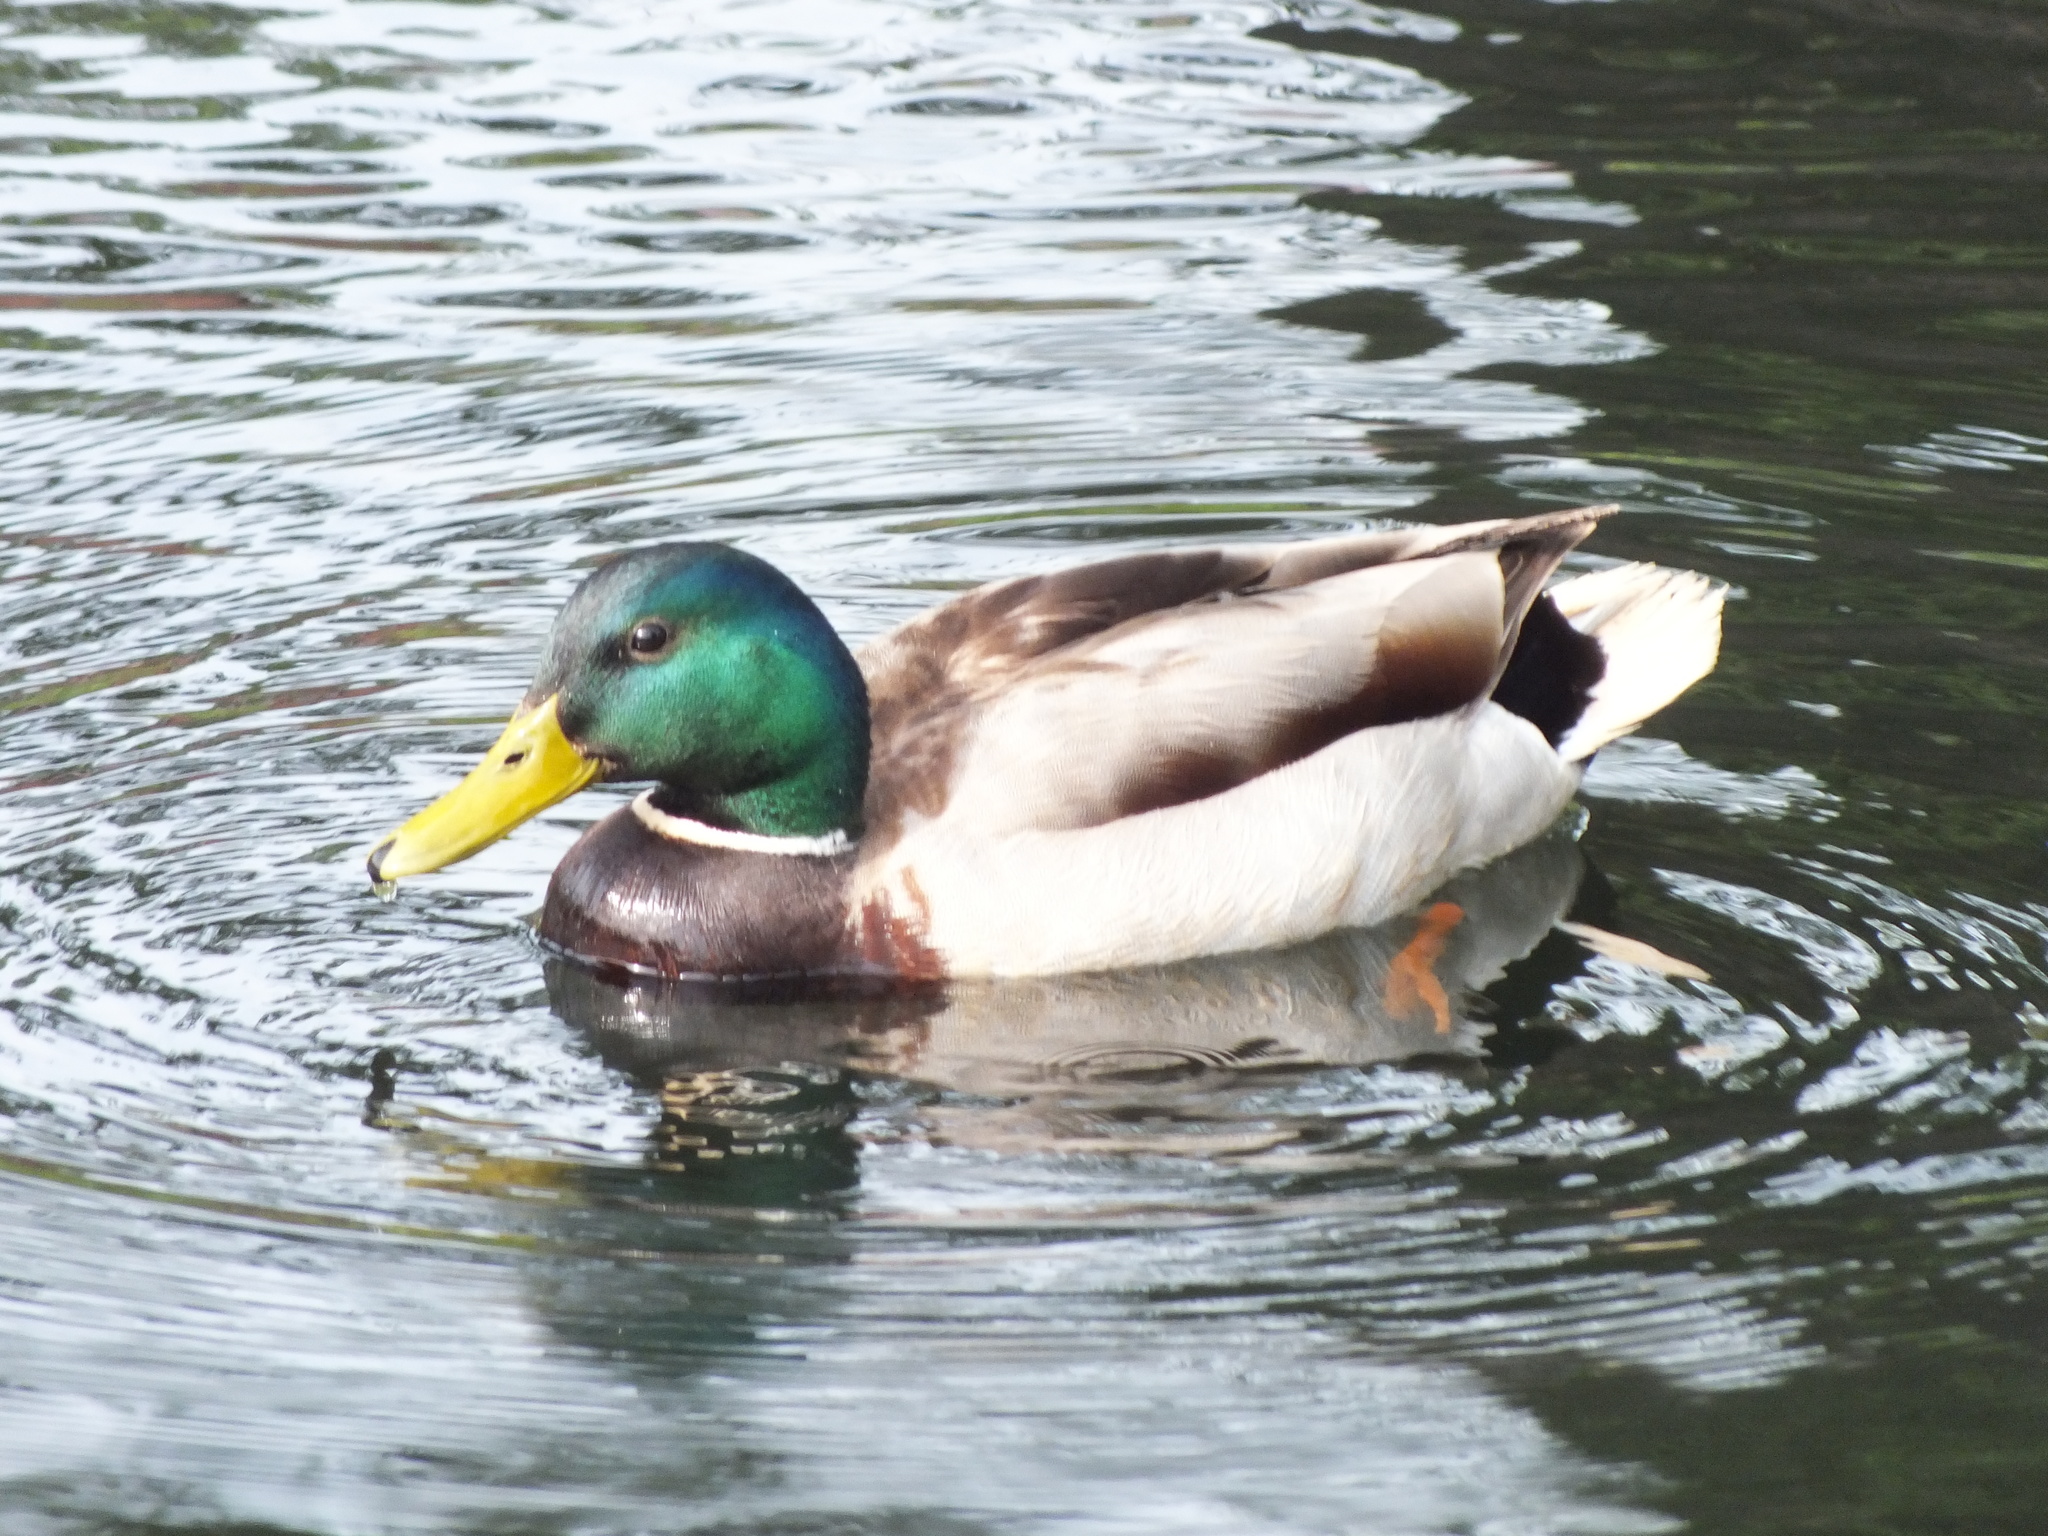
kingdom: Animalia
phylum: Chordata
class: Aves
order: Anseriformes
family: Anatidae
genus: Anas
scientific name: Anas platyrhynchos
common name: Mallard
